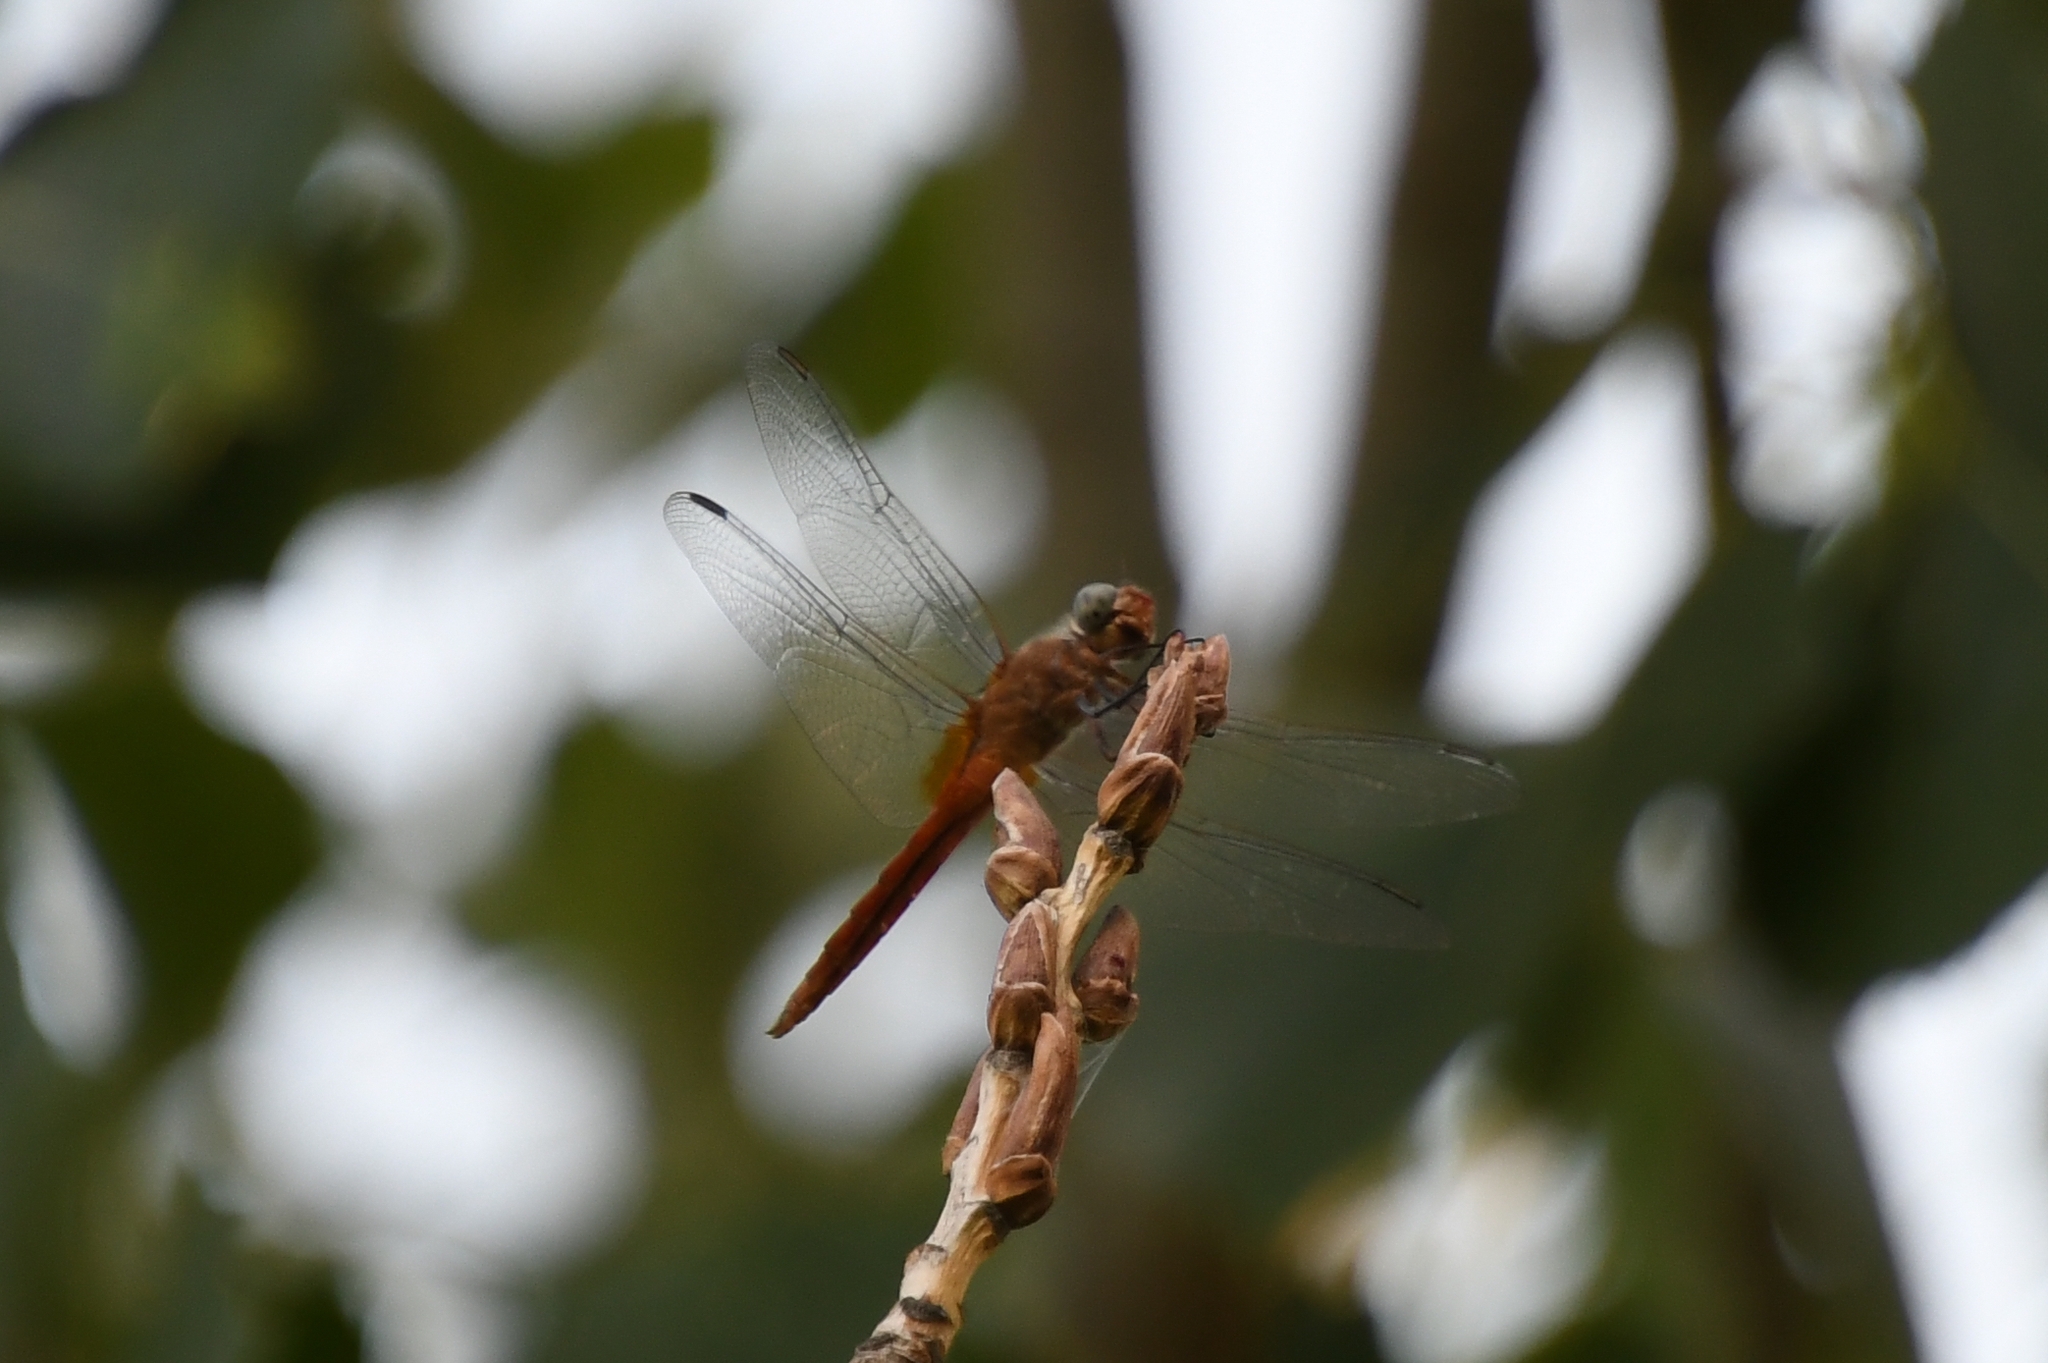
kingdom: Animalia
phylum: Arthropoda
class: Insecta
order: Odonata
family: Libellulidae
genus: Brachymesia
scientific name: Brachymesia furcata
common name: Red-taled pennant
